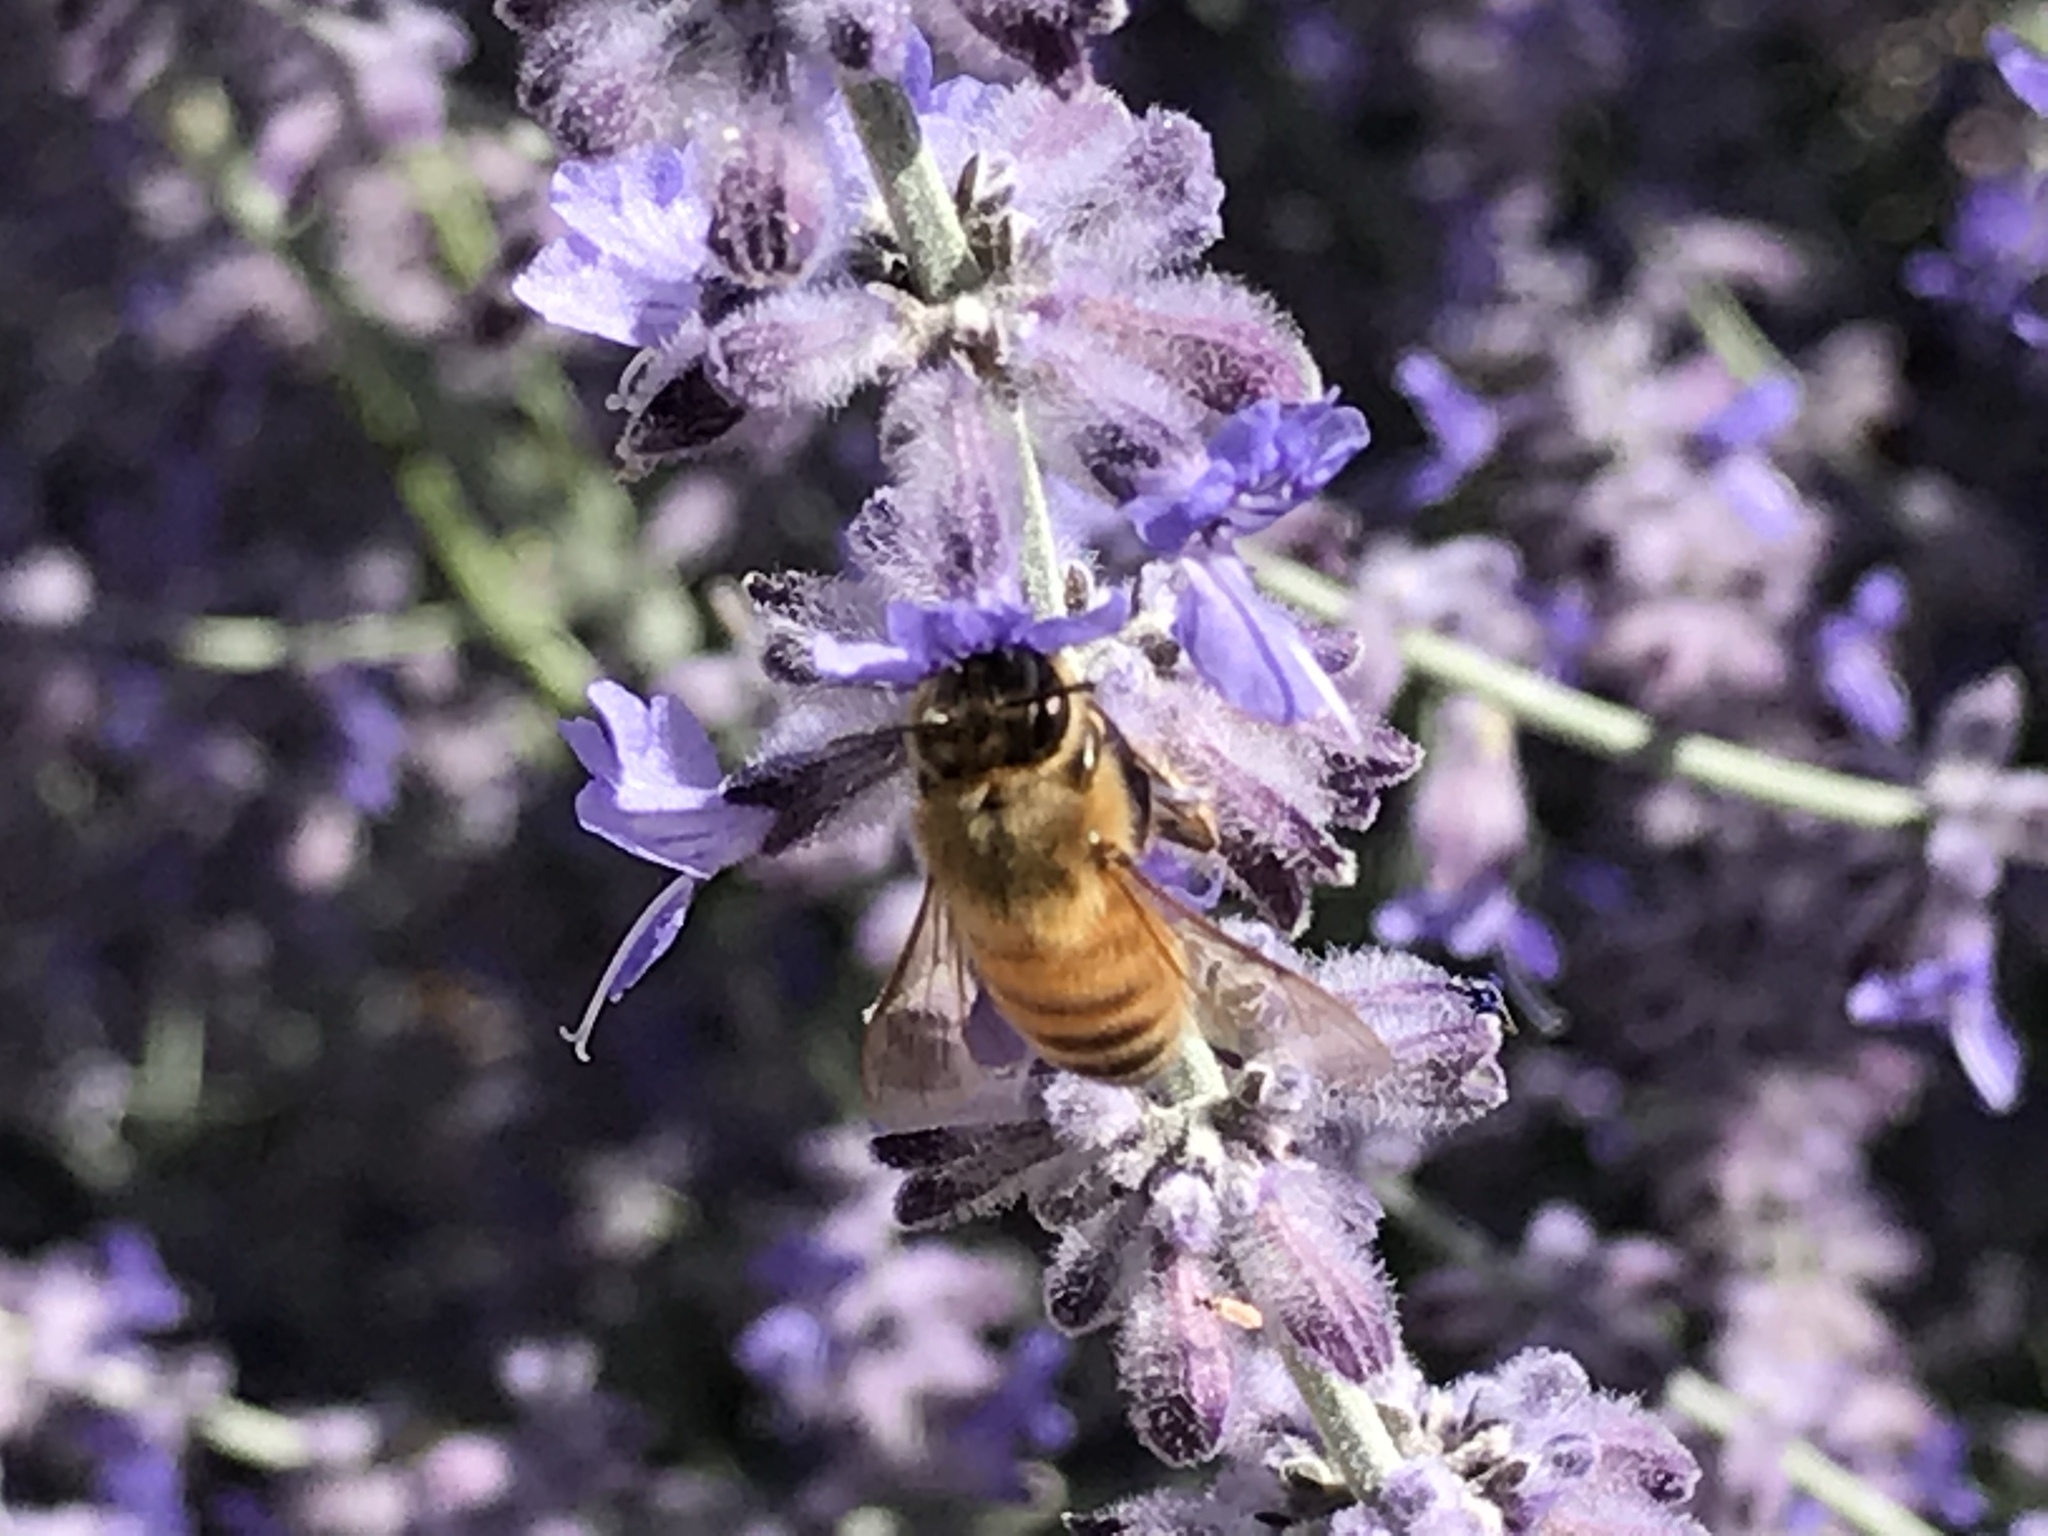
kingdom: Animalia
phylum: Arthropoda
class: Insecta
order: Hymenoptera
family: Apidae
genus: Apis
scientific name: Apis mellifera
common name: Honey bee
